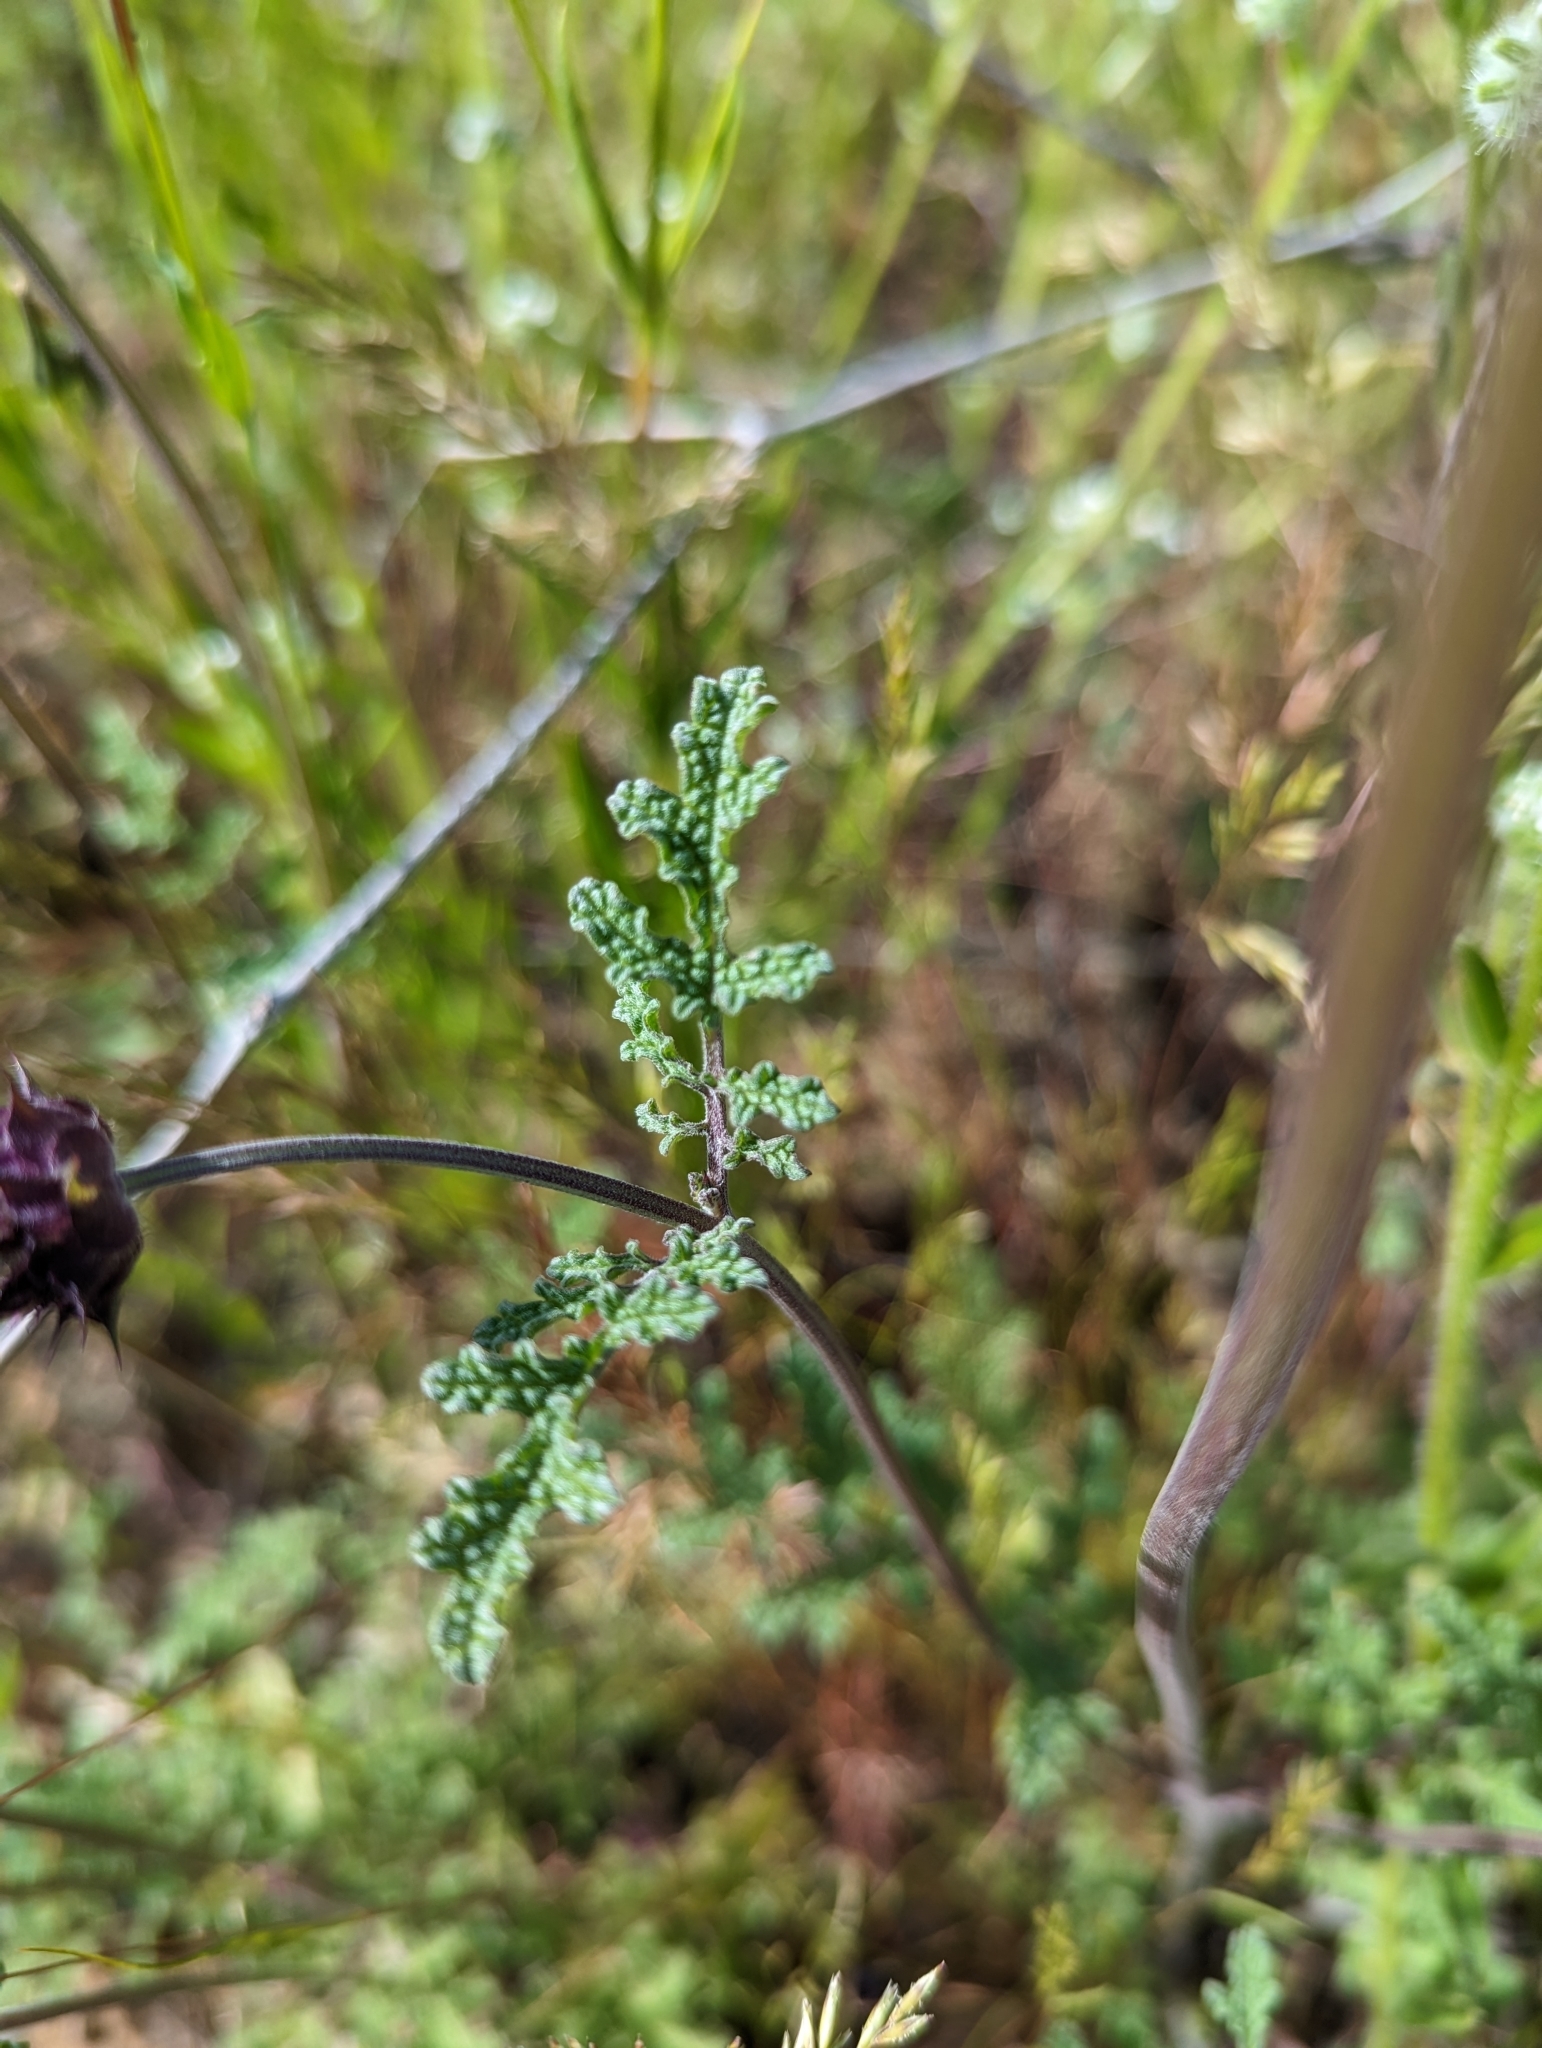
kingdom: Plantae
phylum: Tracheophyta
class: Magnoliopsida
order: Lamiales
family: Lamiaceae
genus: Salvia
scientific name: Salvia columbariae
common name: Chia
